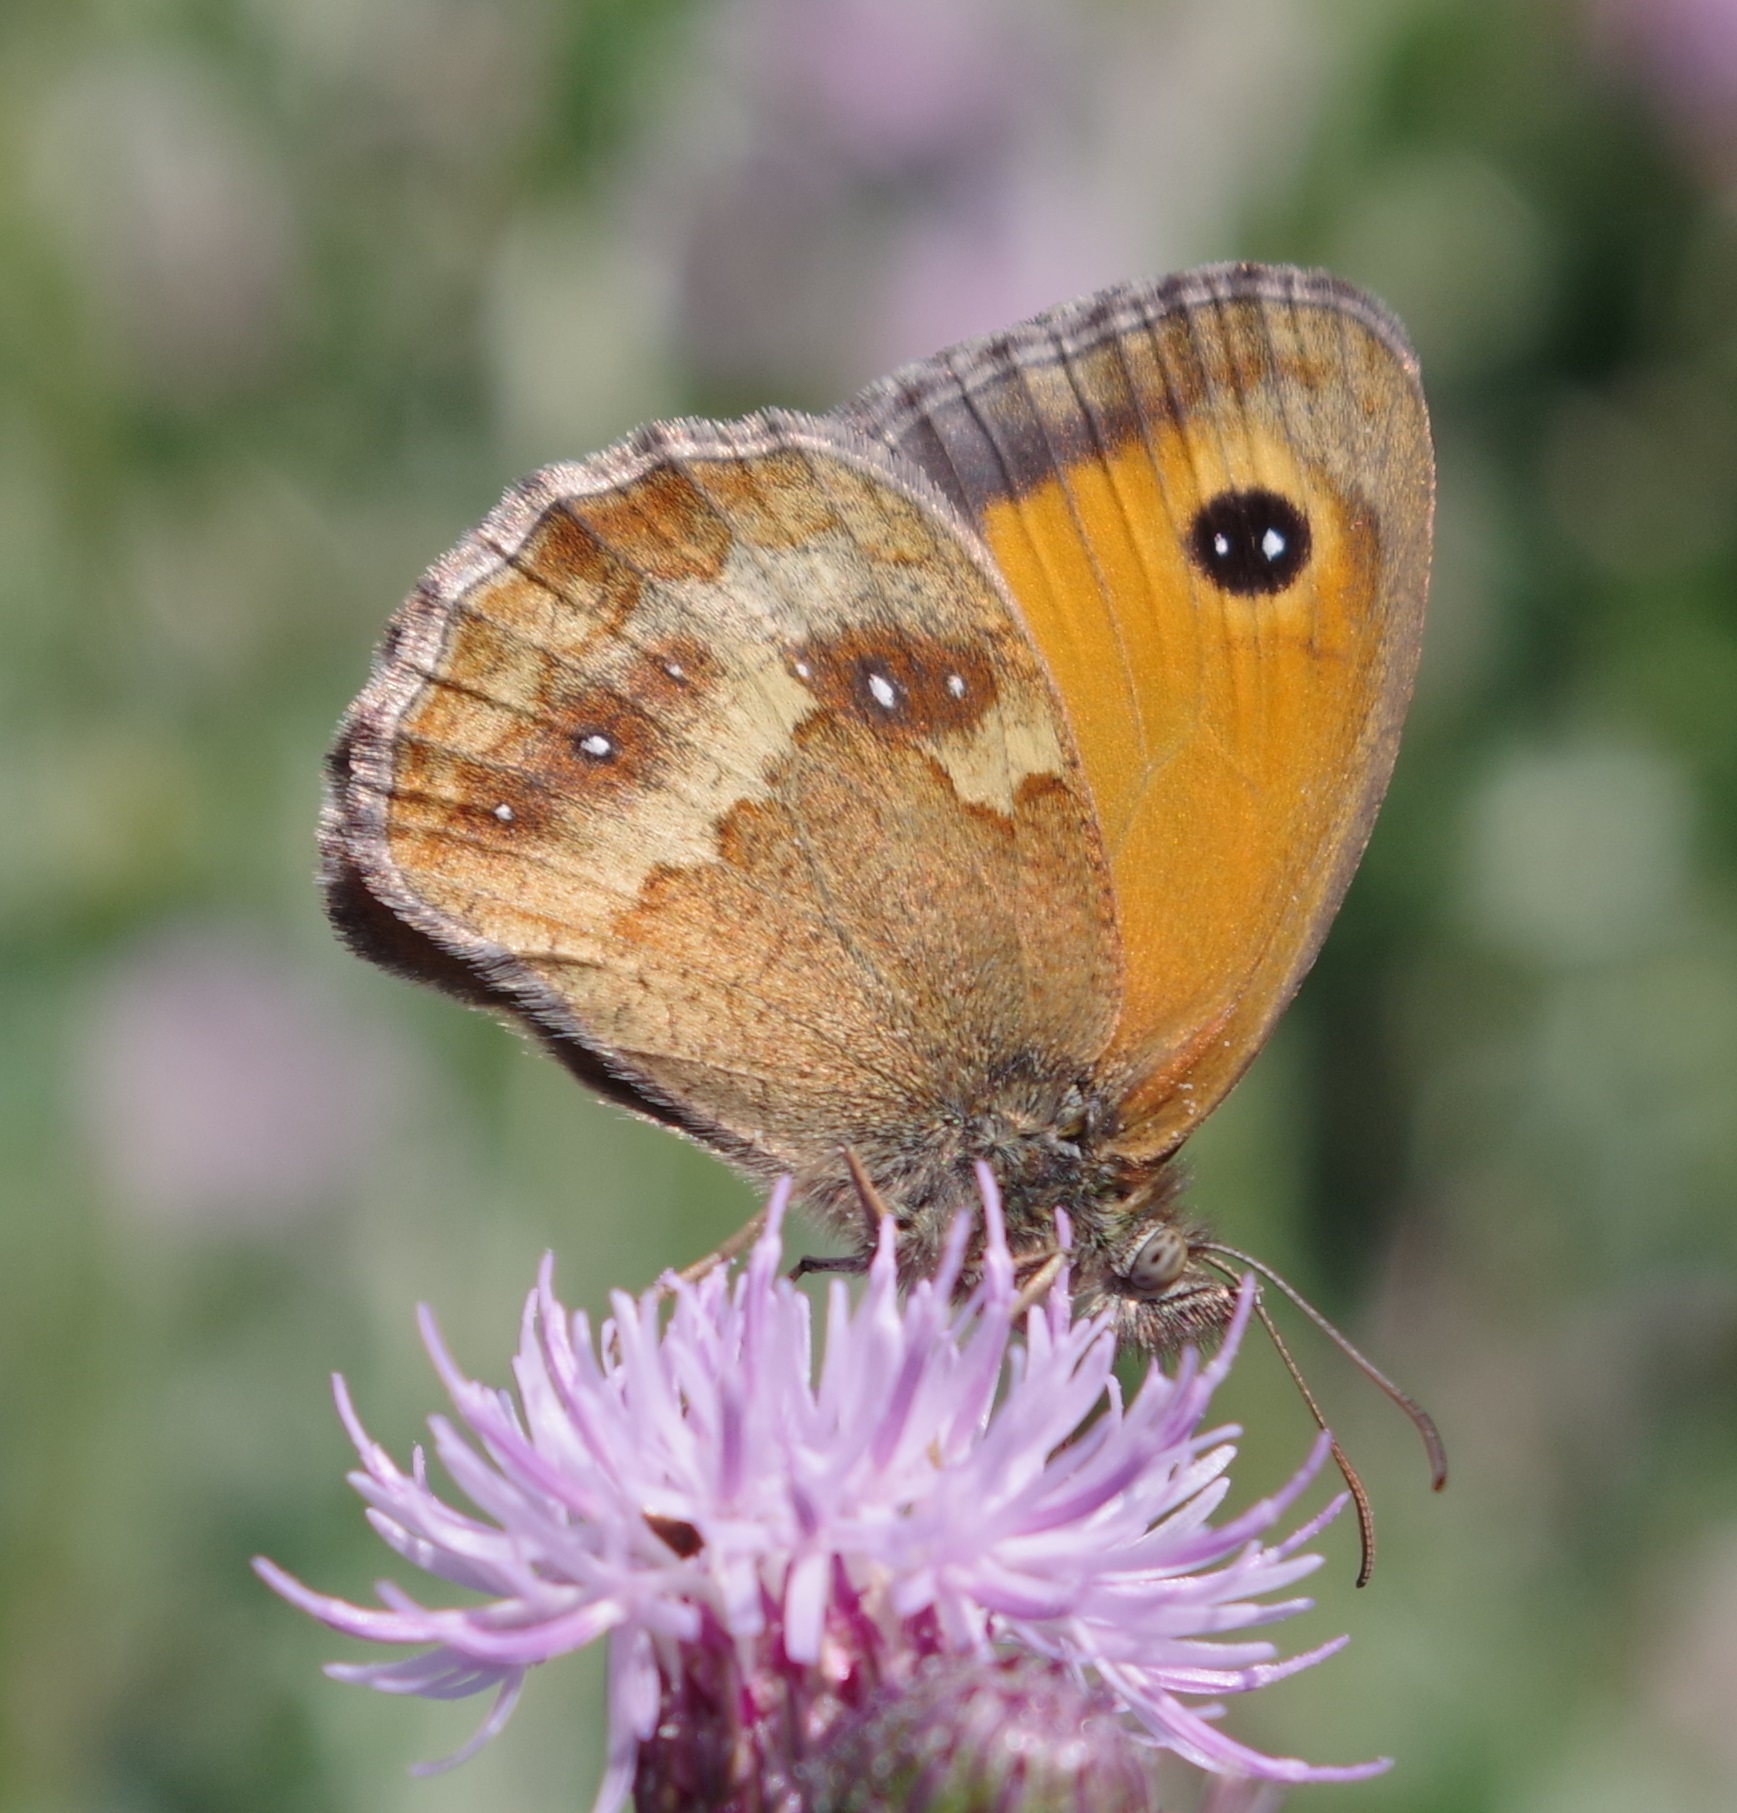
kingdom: Animalia
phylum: Arthropoda
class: Insecta
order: Lepidoptera
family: Nymphalidae
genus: Pyronia
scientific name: Pyronia tithonus
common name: Gatekeeper
